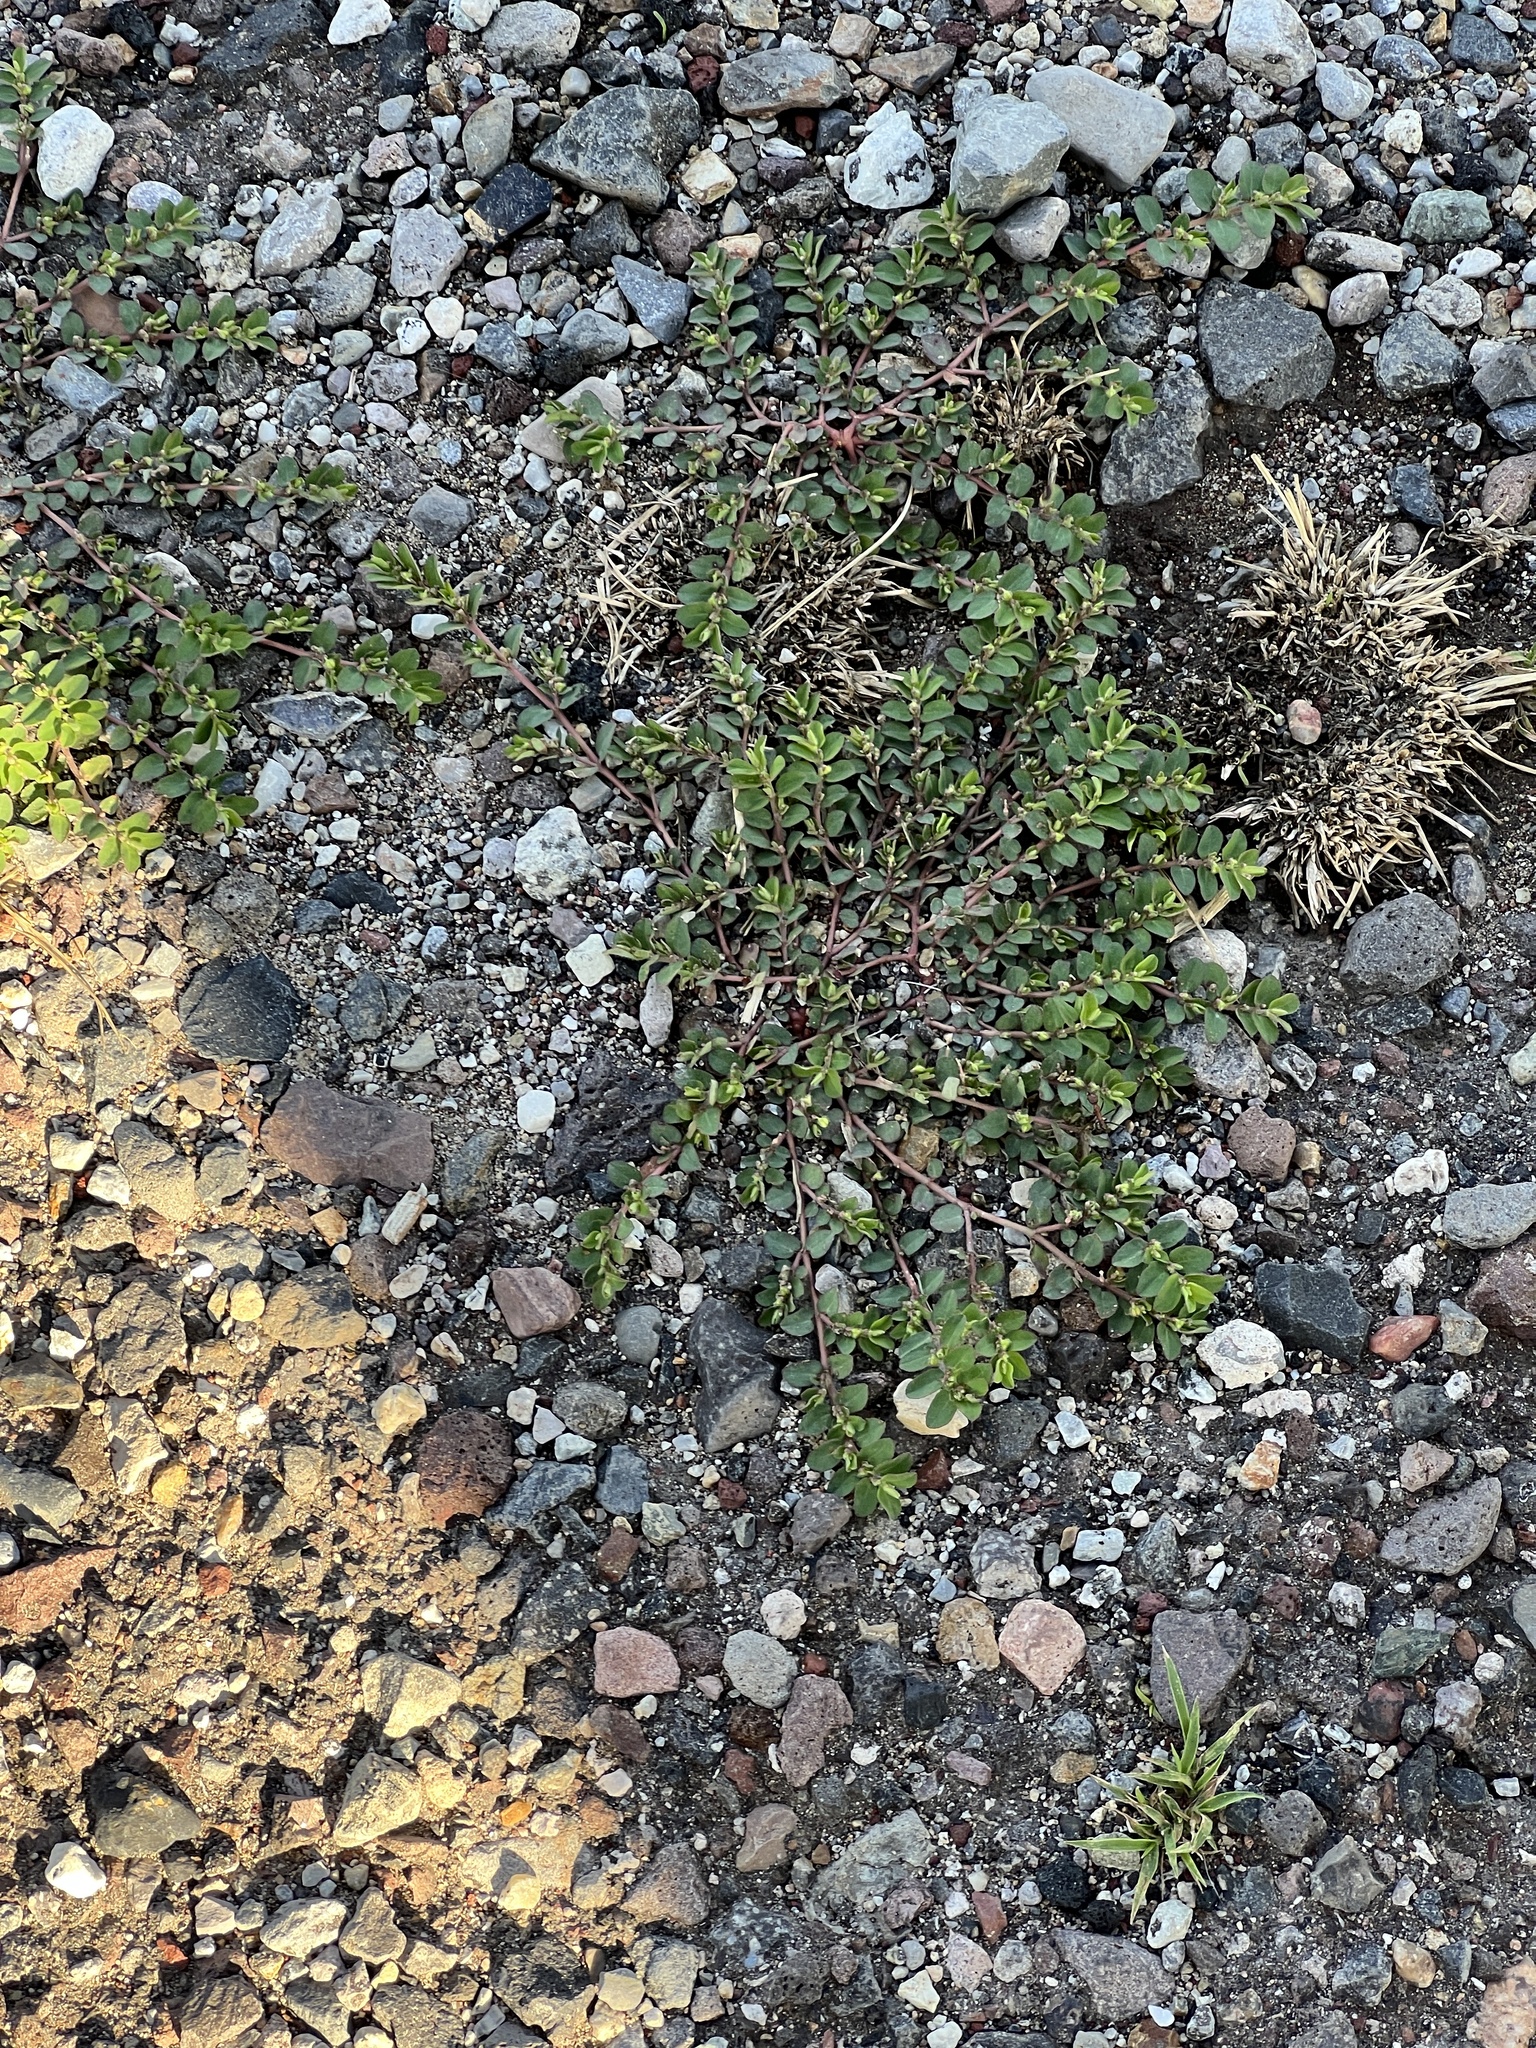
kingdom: Plantae
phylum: Tracheophyta
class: Magnoliopsida
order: Malpighiales
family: Euphorbiaceae
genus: Euphorbia
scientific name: Euphorbia prostrata
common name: Prostrate sandmat
